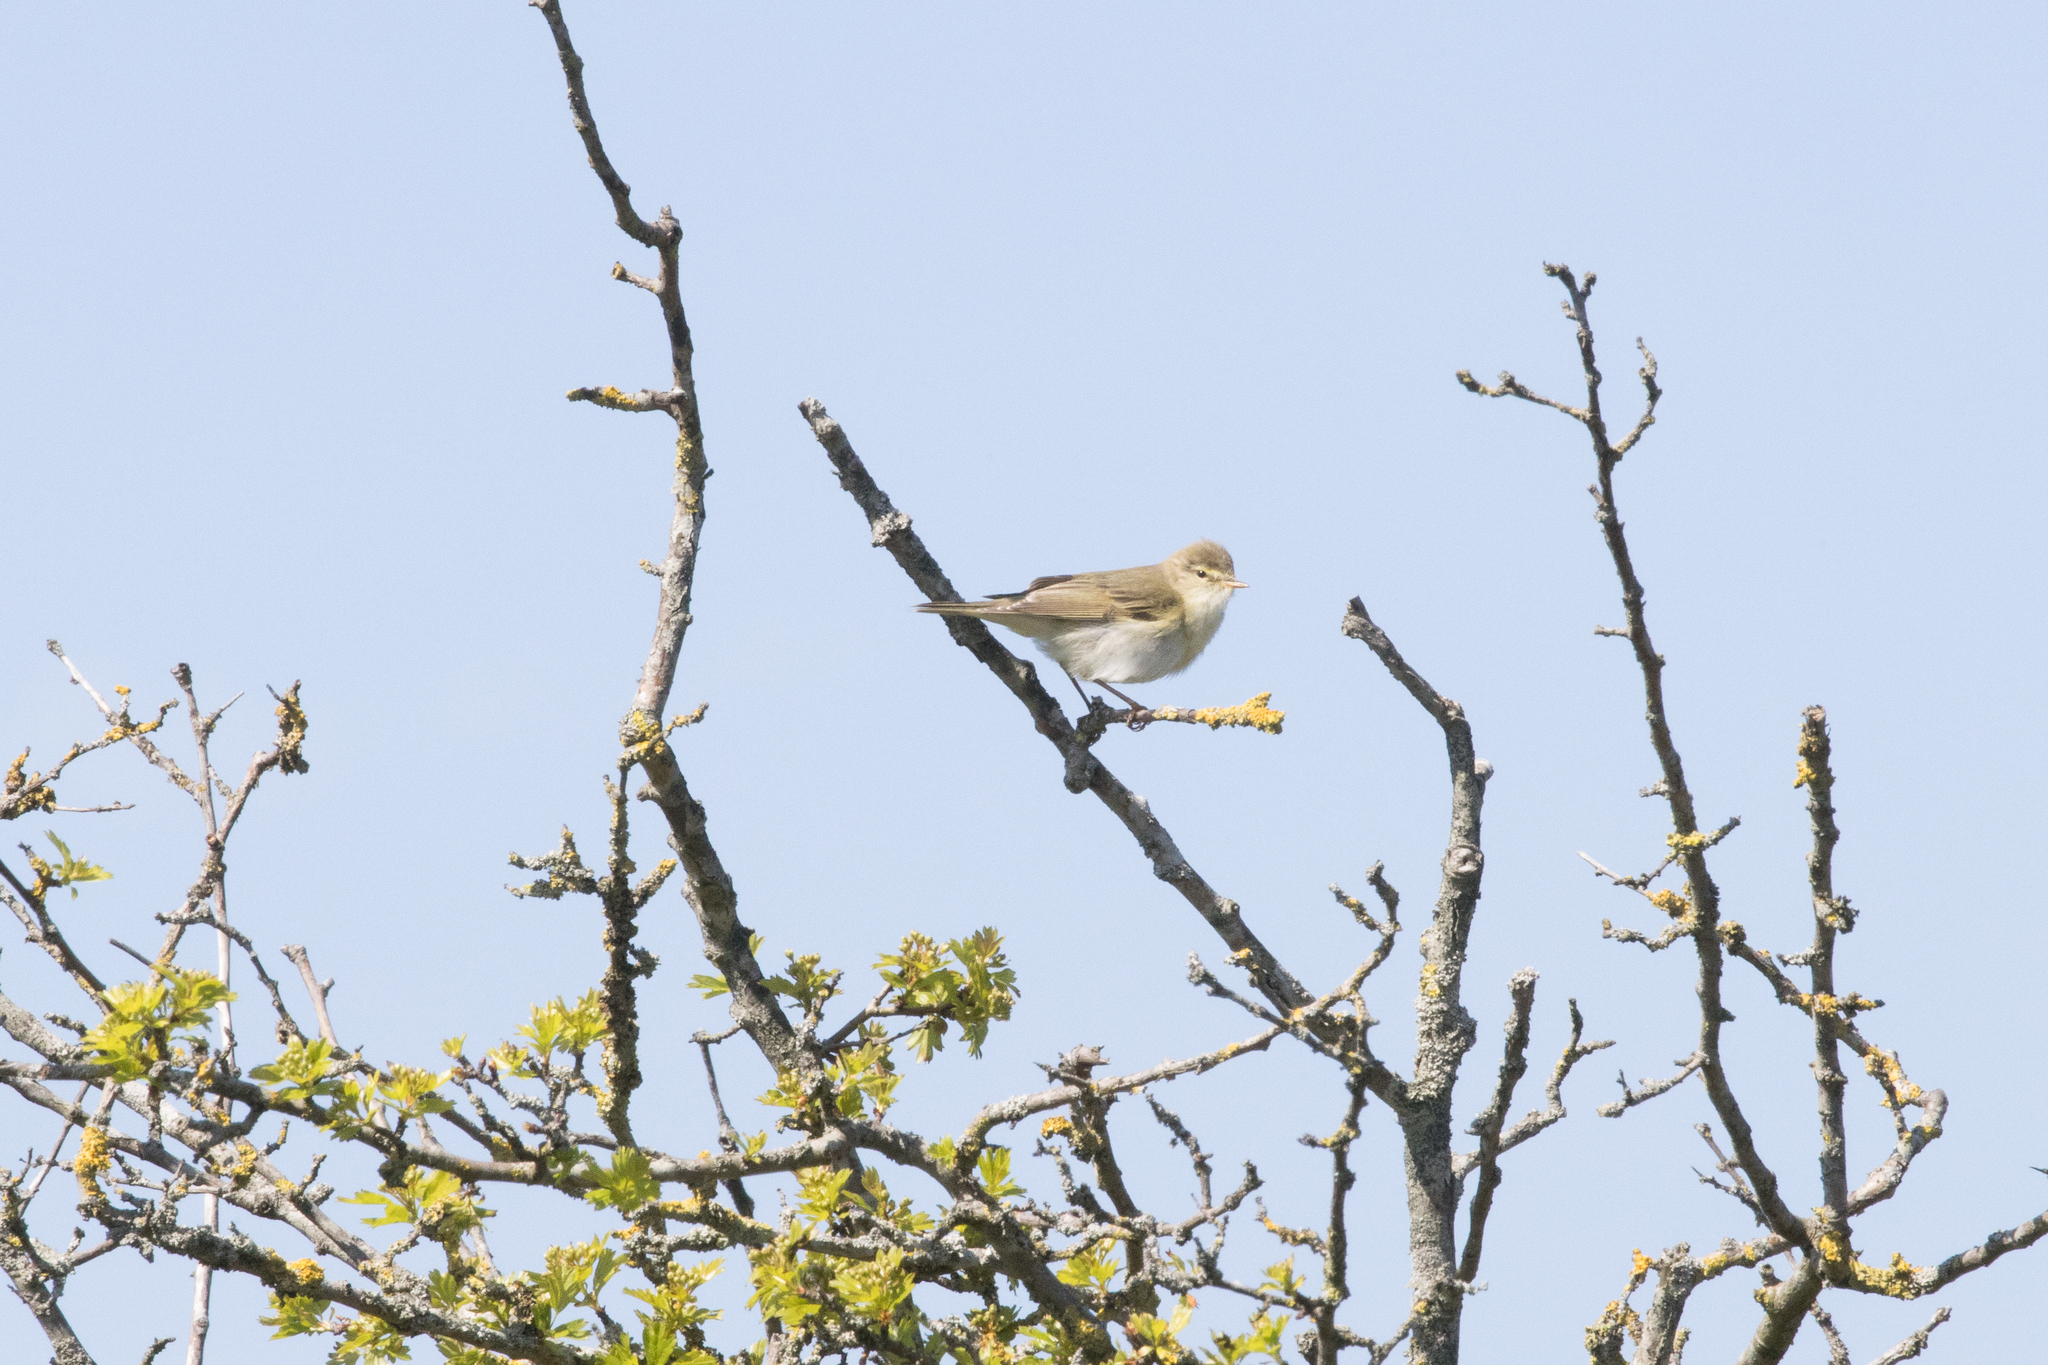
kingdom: Animalia
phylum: Chordata
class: Aves
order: Passeriformes
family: Phylloscopidae
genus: Phylloscopus
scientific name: Phylloscopus trochilus
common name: Willow warbler
